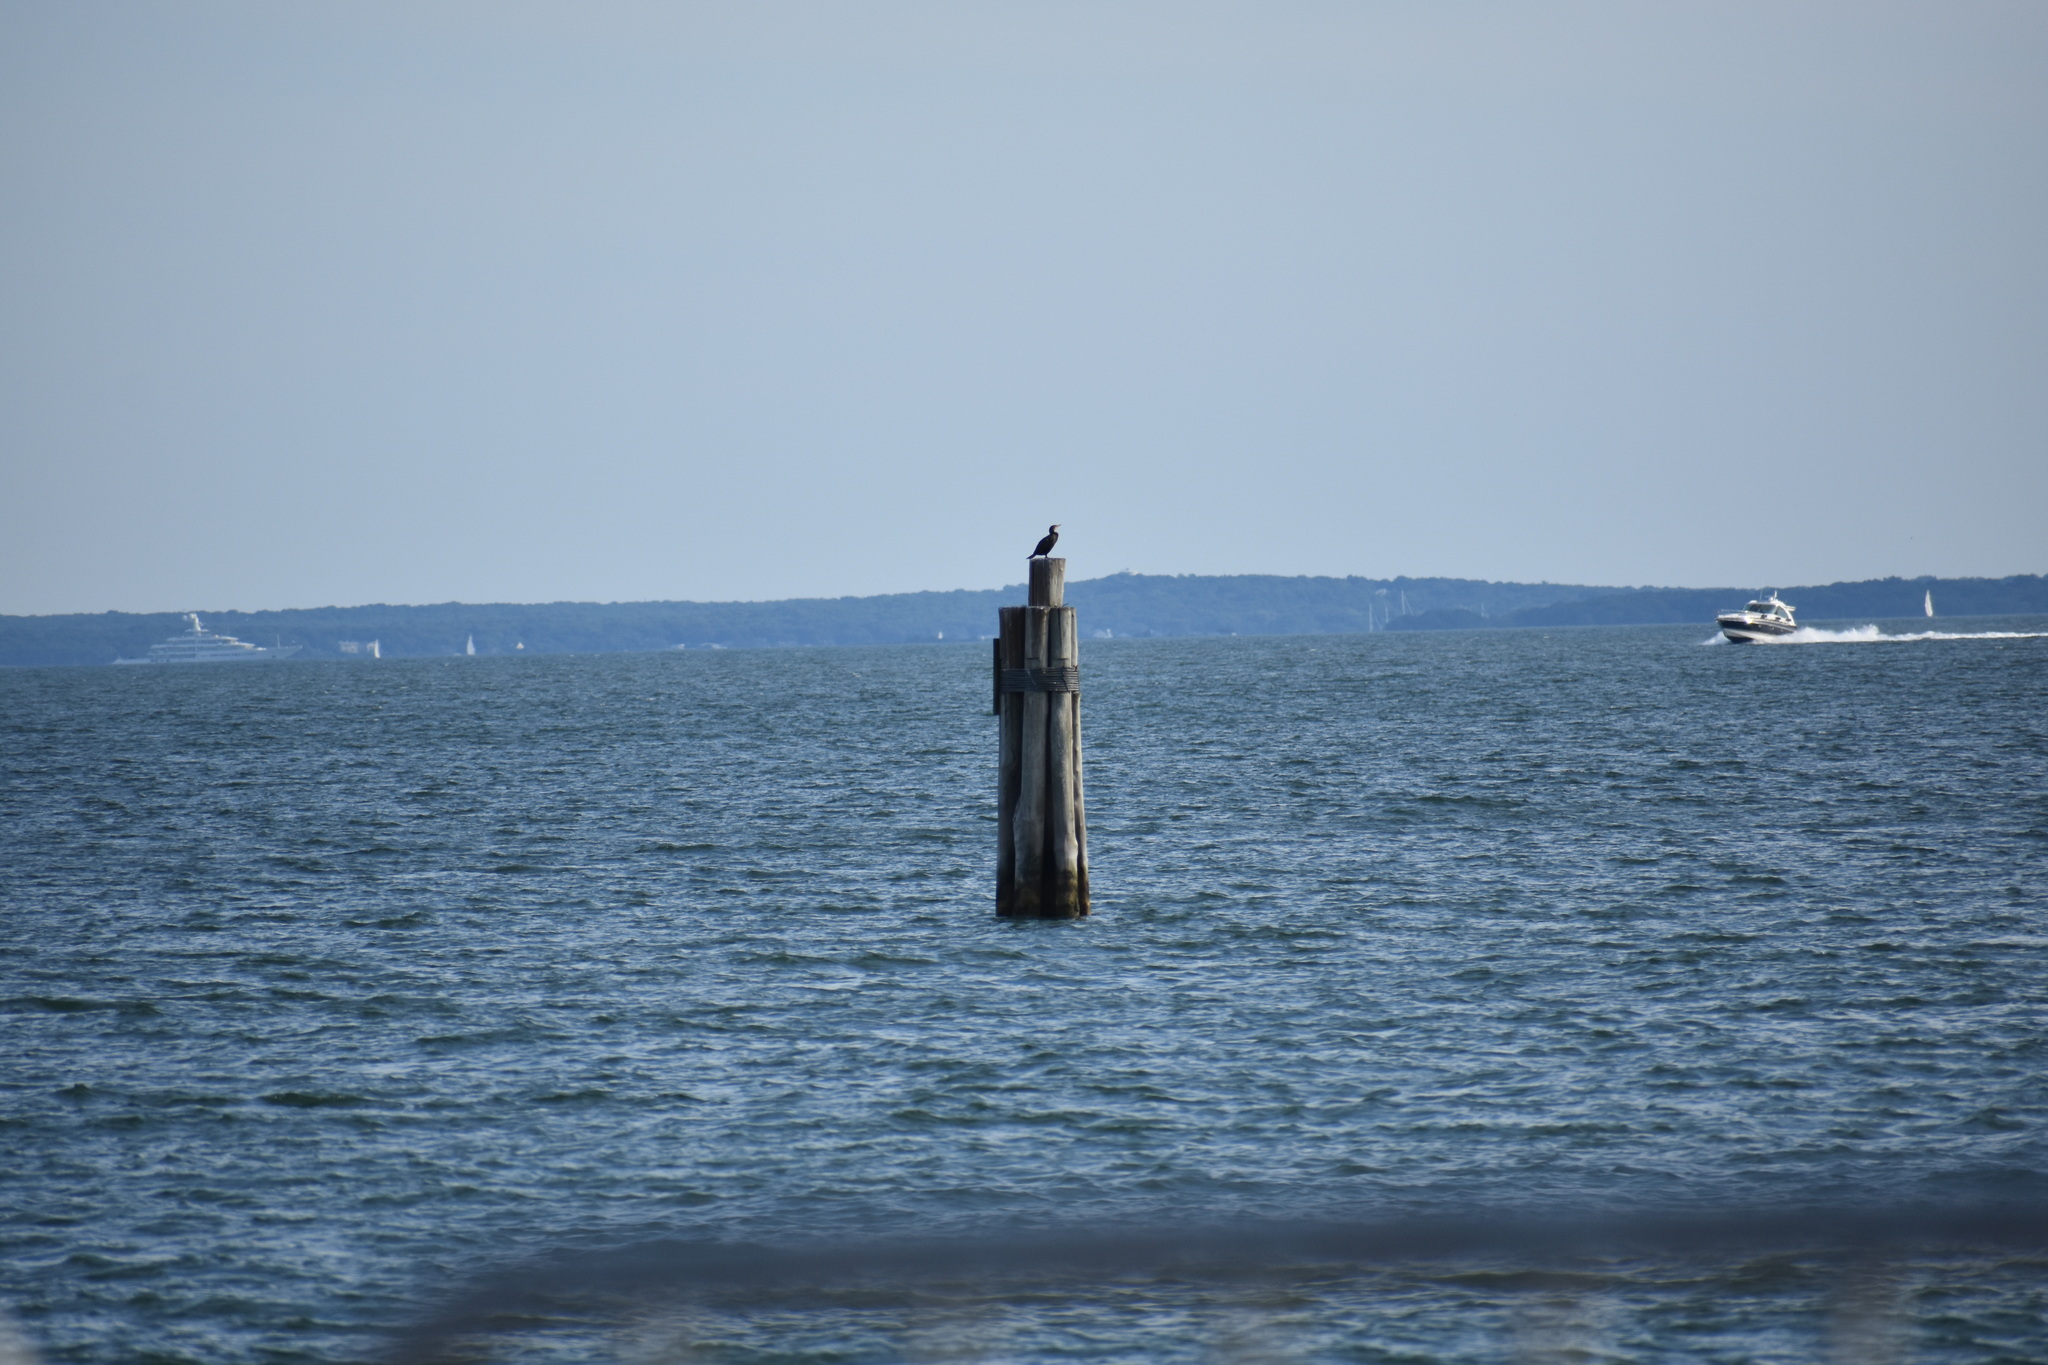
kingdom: Animalia
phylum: Chordata
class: Aves
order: Suliformes
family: Phalacrocoracidae
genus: Phalacrocorax
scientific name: Phalacrocorax auritus
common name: Double-crested cormorant
